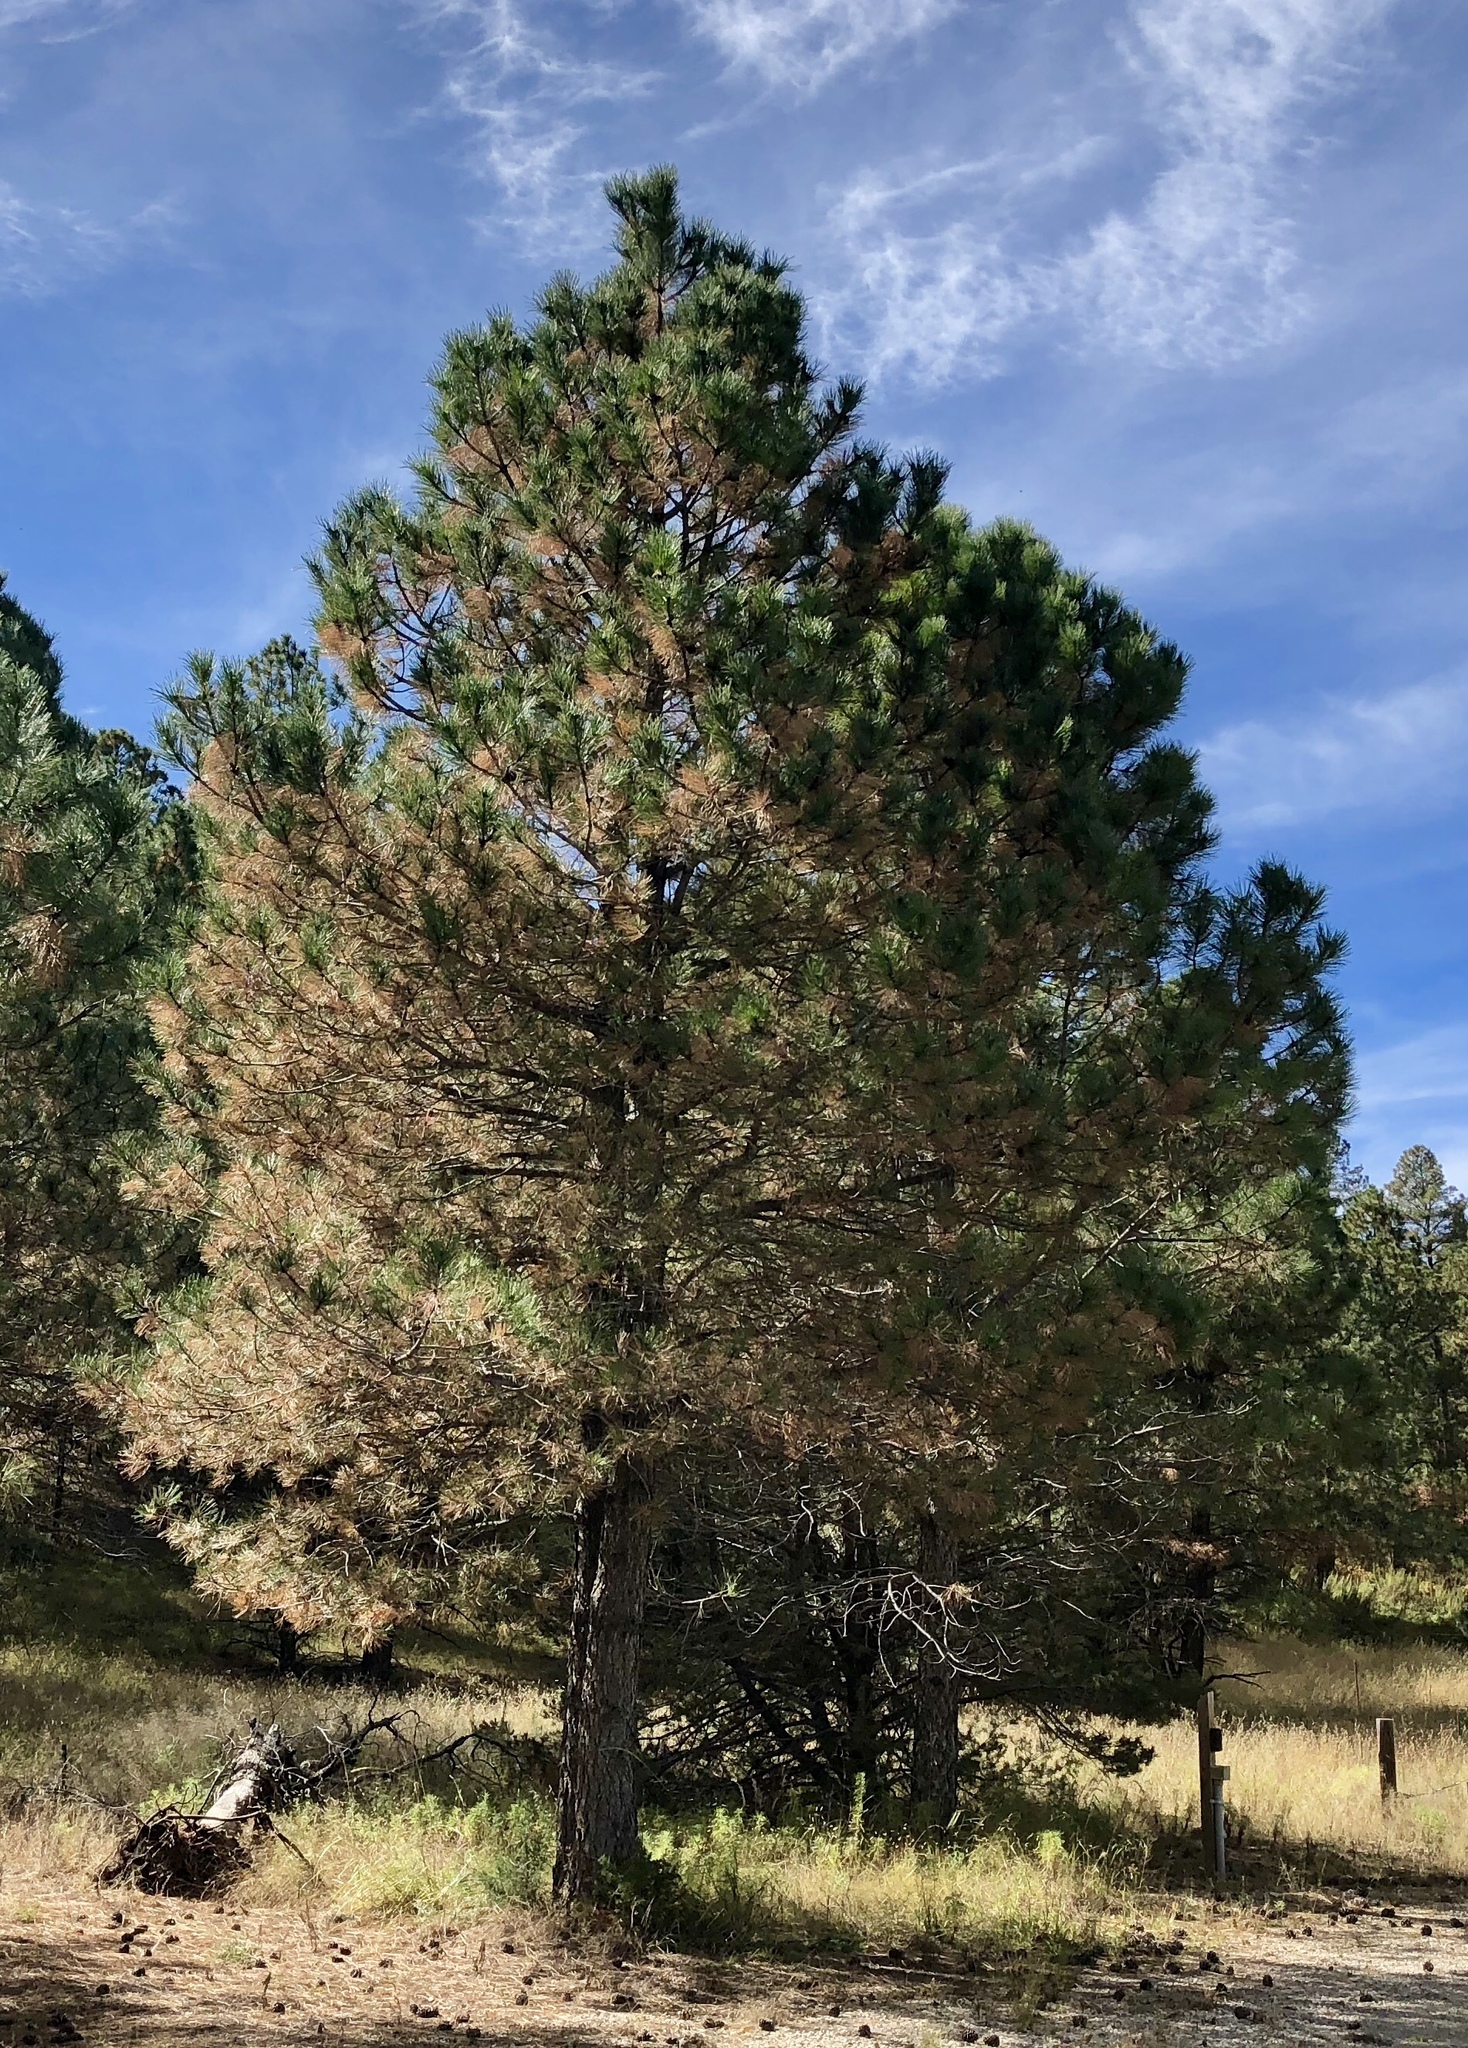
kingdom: Plantae
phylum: Tracheophyta
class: Pinopsida
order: Pinales
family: Pinaceae
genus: Pinus
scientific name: Pinus ponderosa
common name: Western yellow-pine
